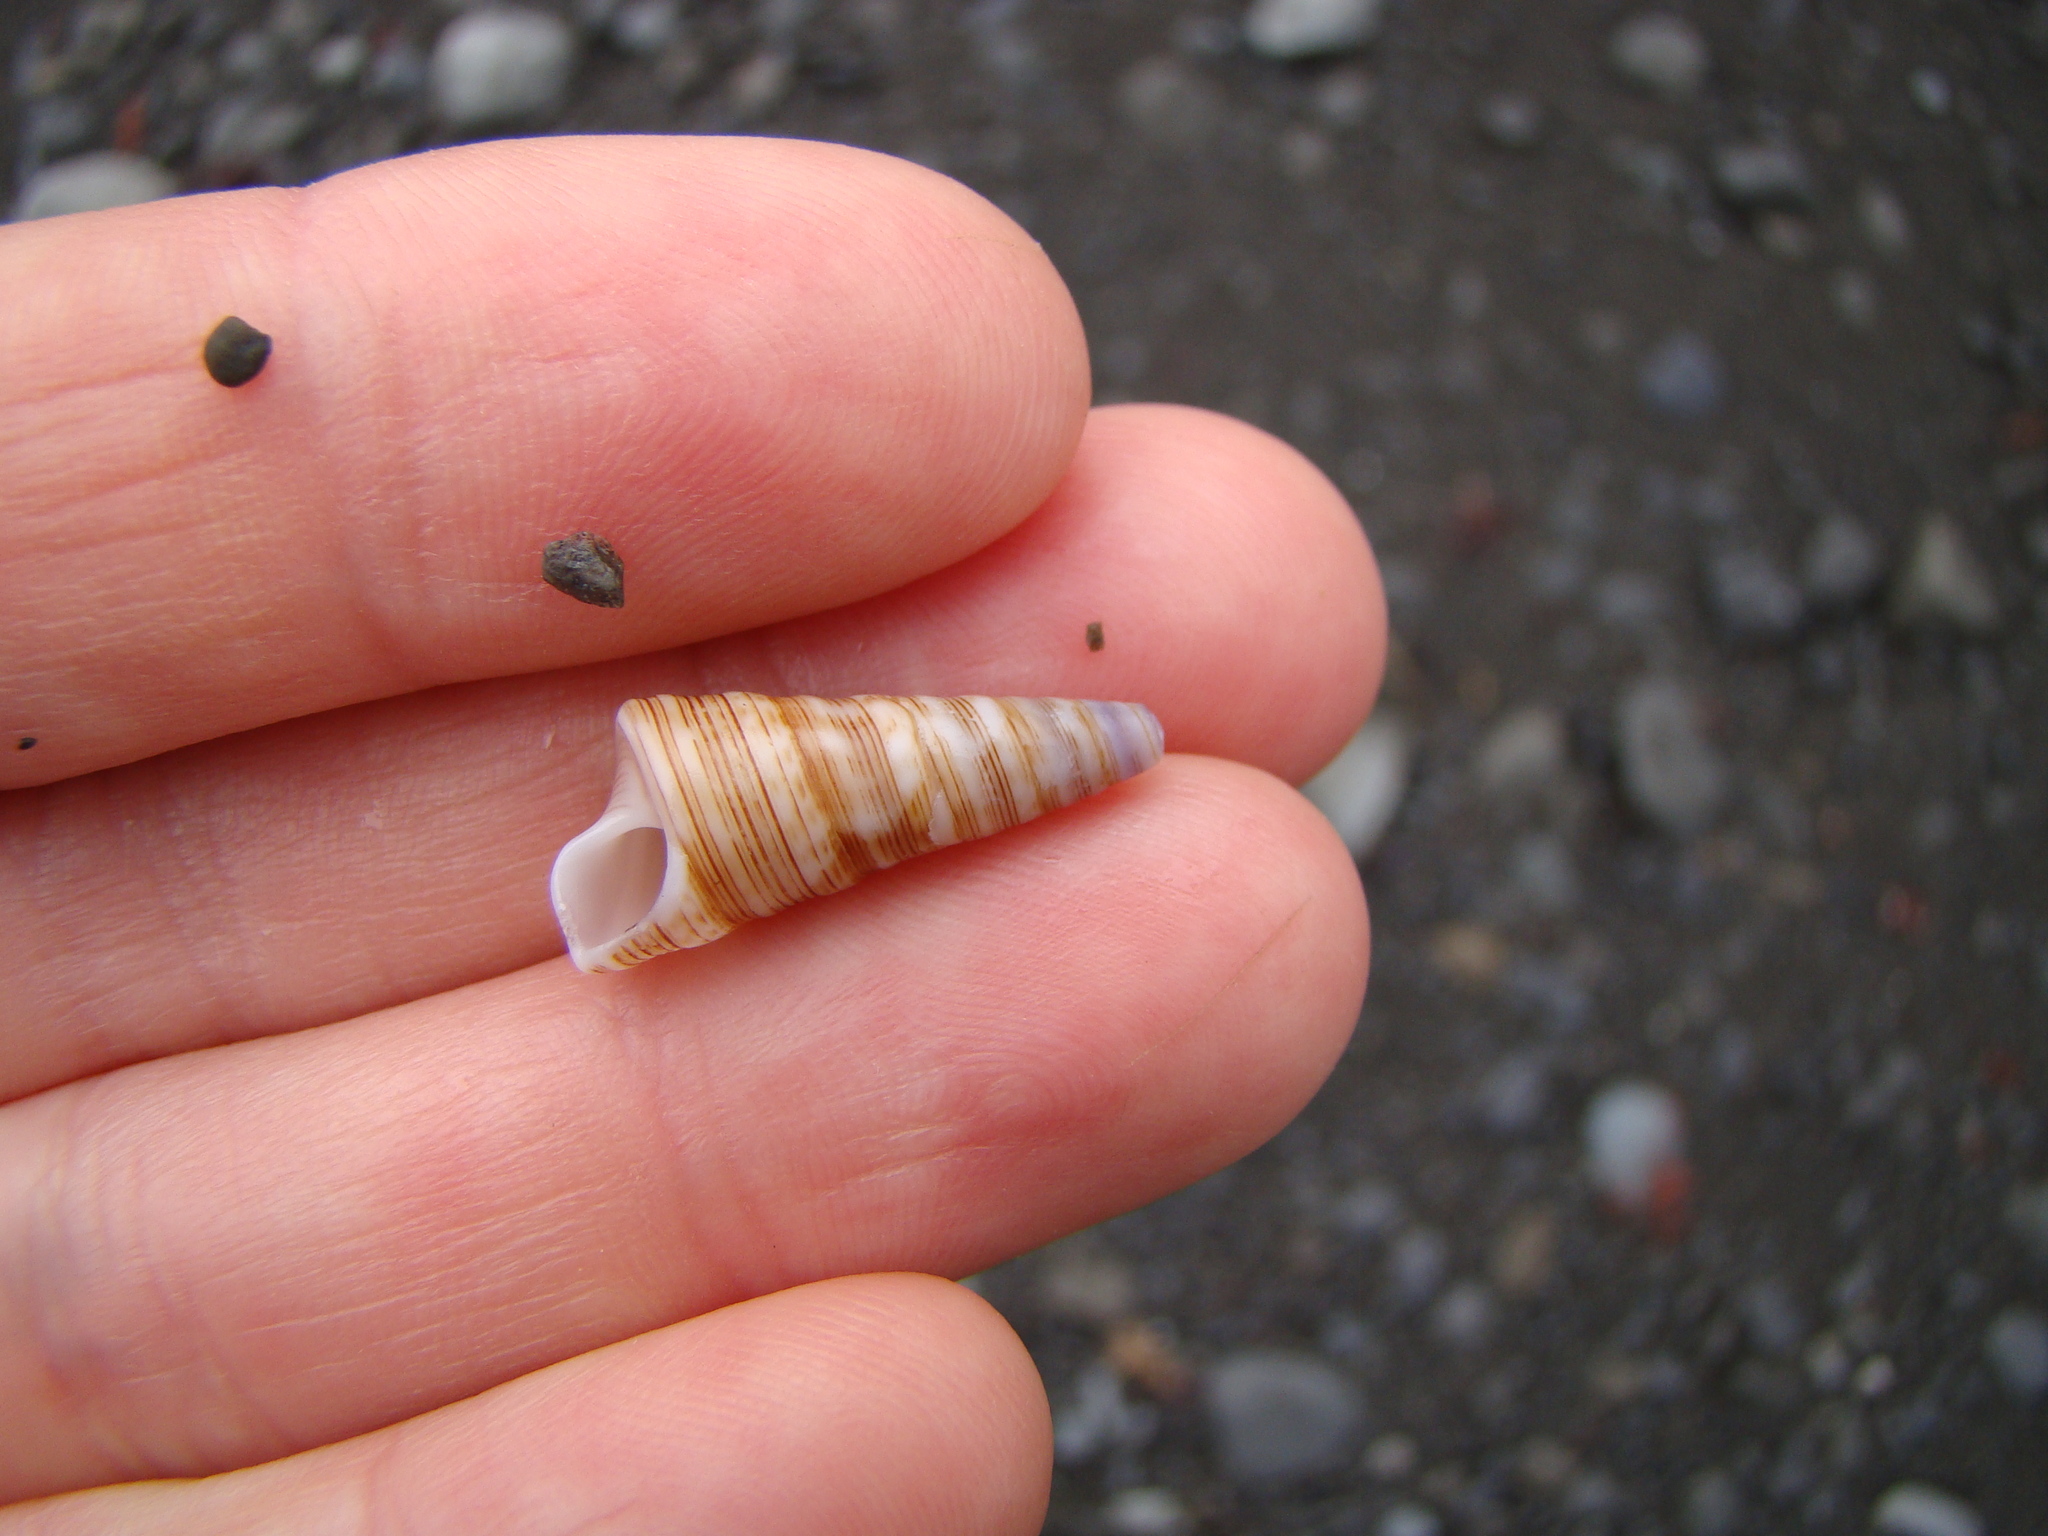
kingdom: Animalia
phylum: Mollusca
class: Gastropoda
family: Turritellidae
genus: Maoricolpus
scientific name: Maoricolpus roseus
